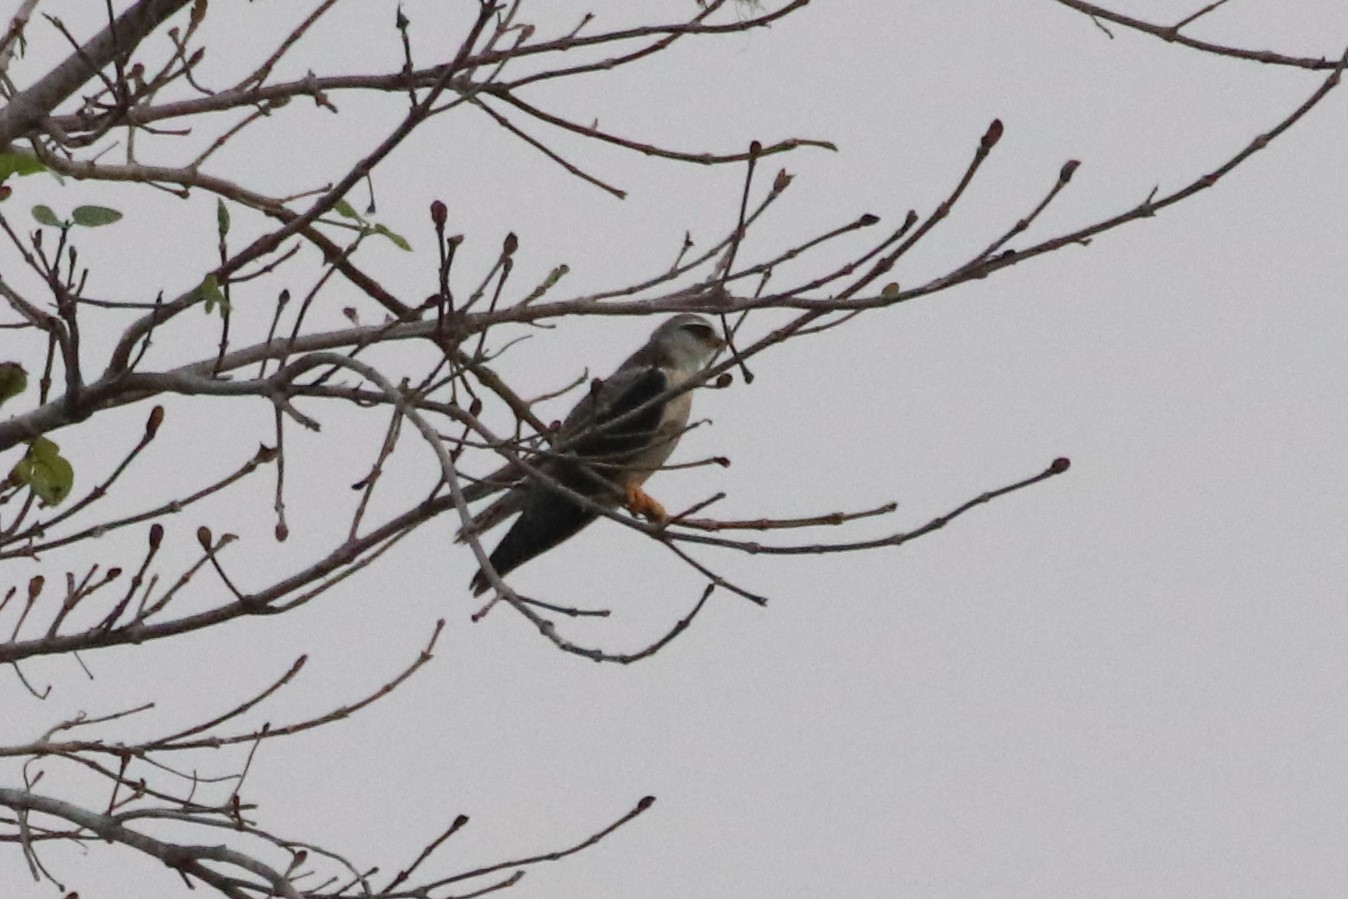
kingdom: Animalia
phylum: Chordata
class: Aves
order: Accipitriformes
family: Accipitridae
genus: Elanus
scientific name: Elanus caeruleus
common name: Black-winged kite
